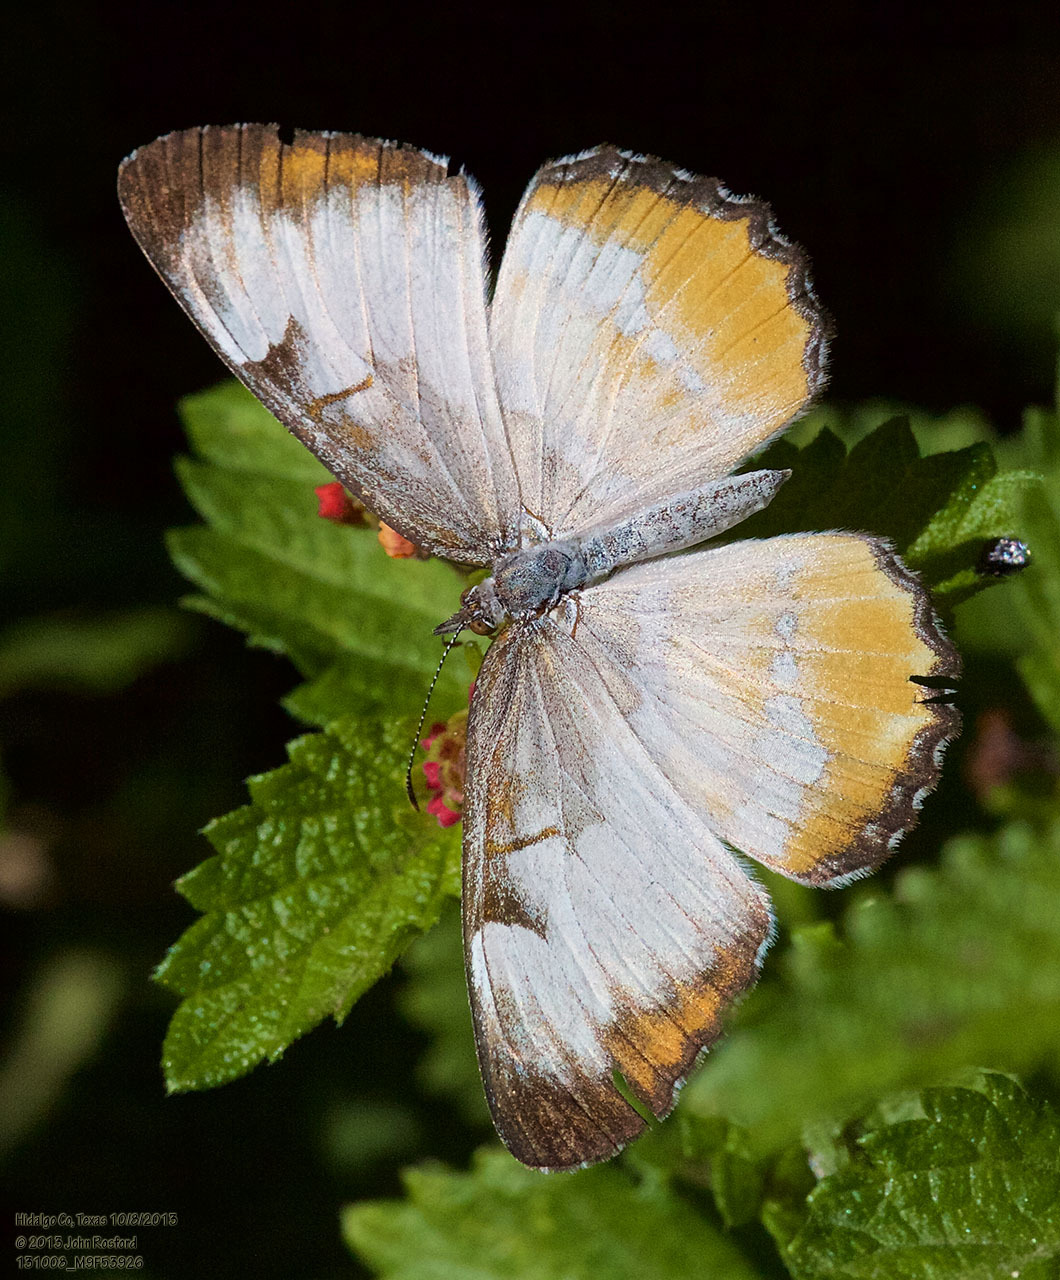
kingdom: Animalia
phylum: Arthropoda
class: Insecta
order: Lepidoptera
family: Nymphalidae
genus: Mestra
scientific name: Mestra amymone
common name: Common mestra
